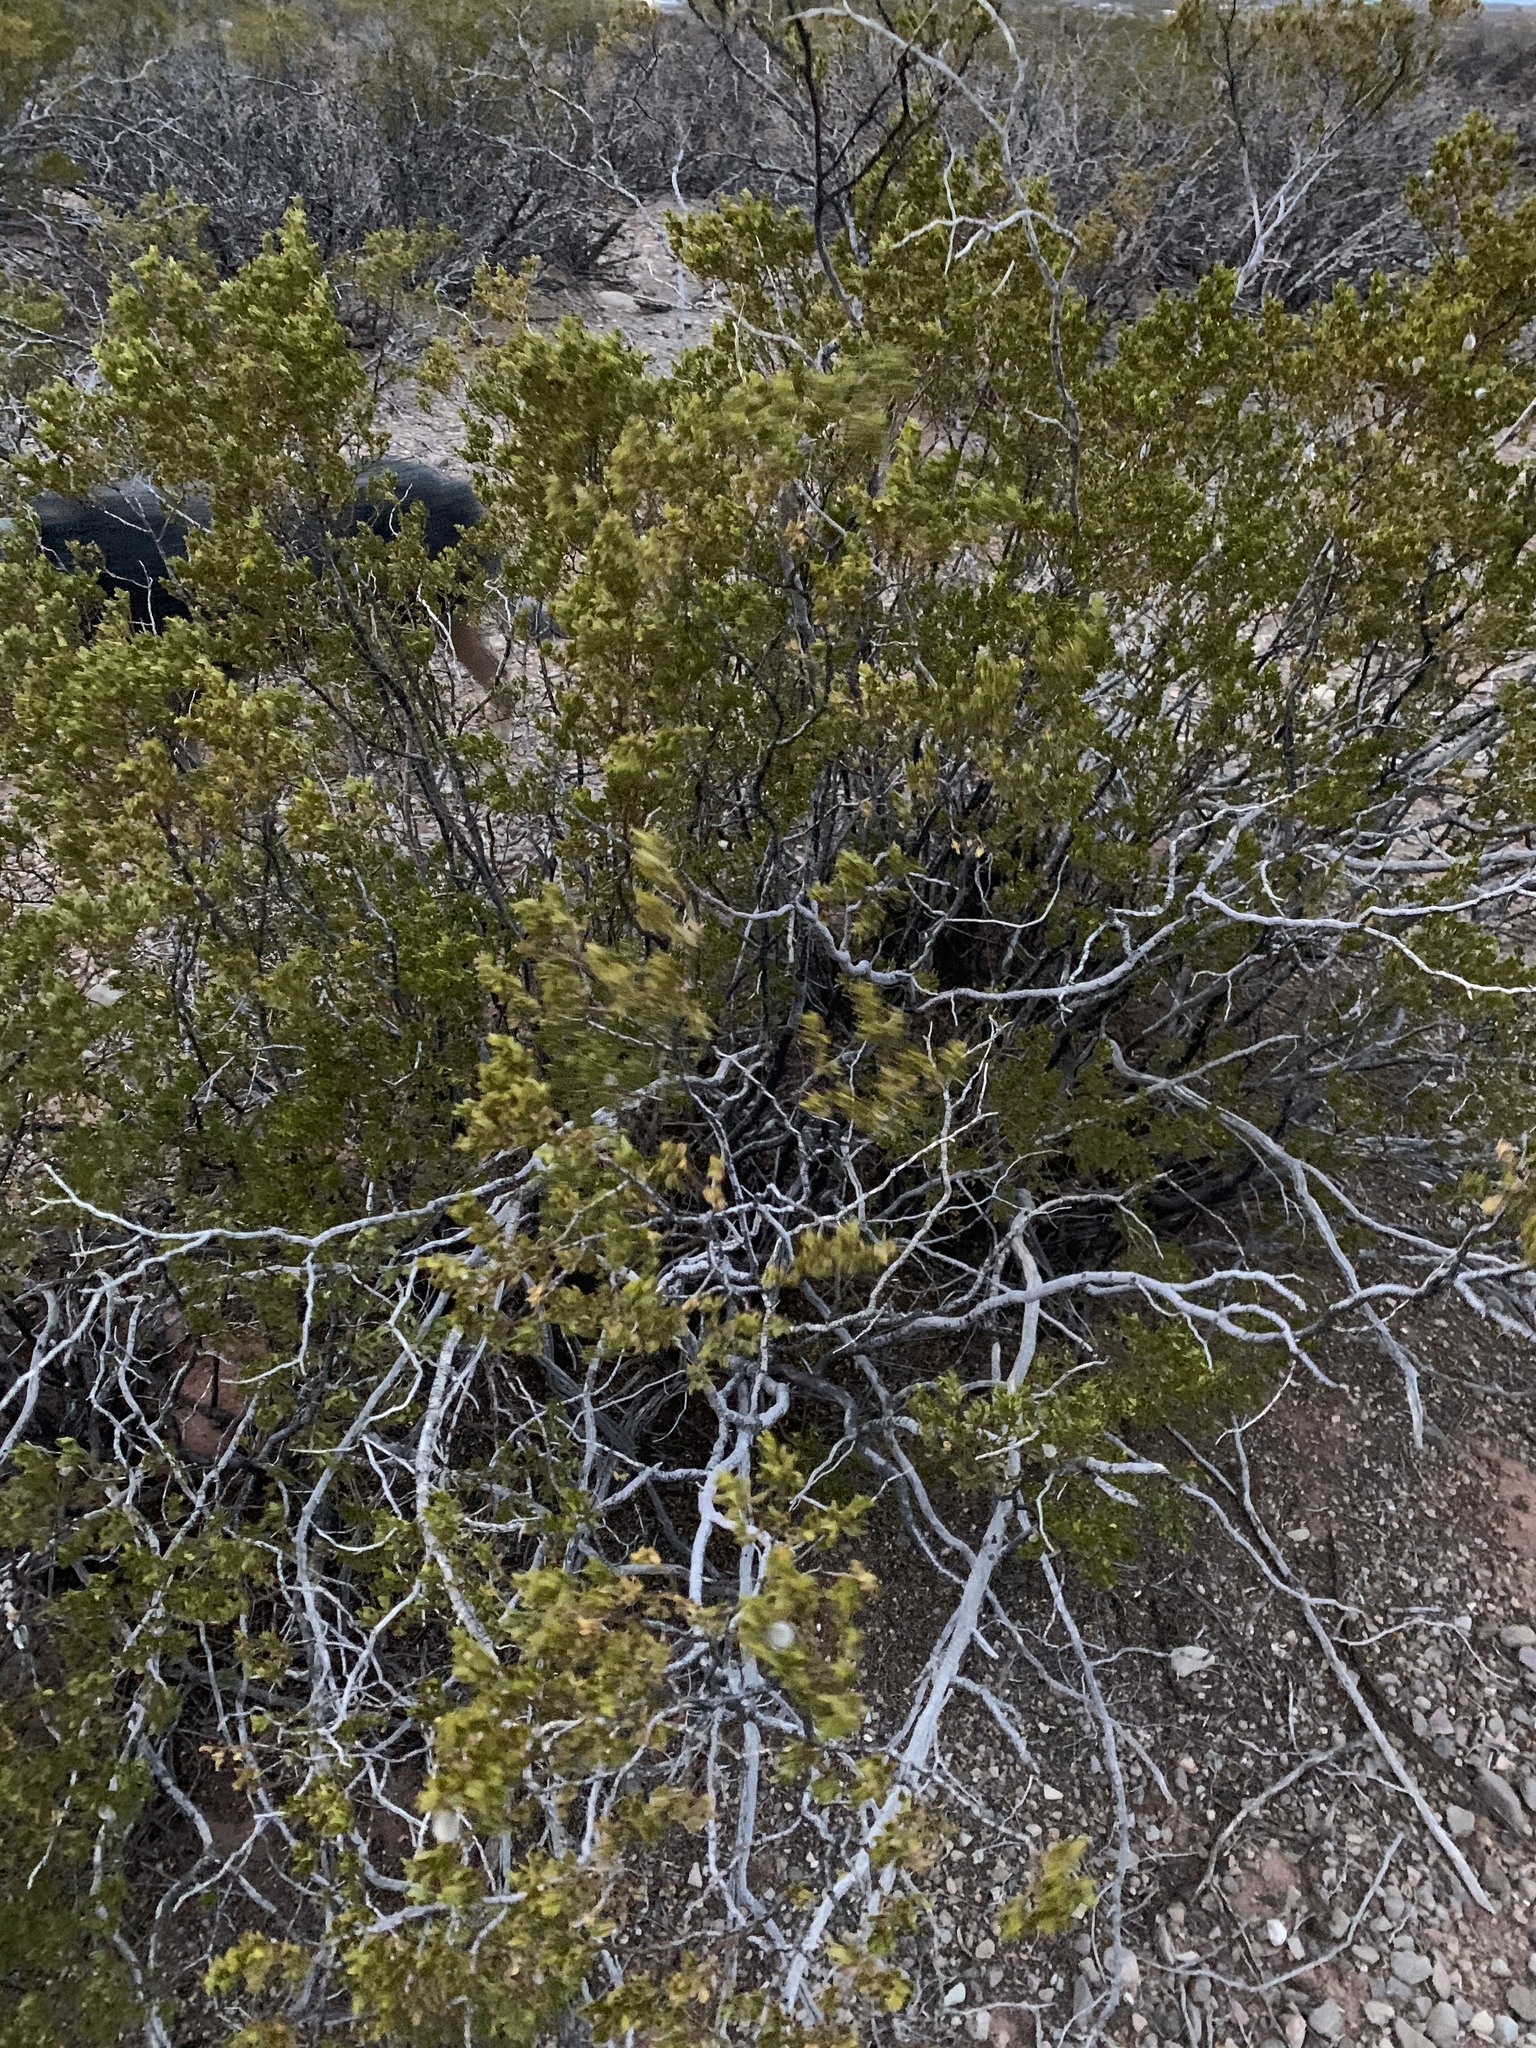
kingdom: Plantae
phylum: Tracheophyta
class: Magnoliopsida
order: Zygophyllales
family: Zygophyllaceae
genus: Larrea
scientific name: Larrea tridentata
